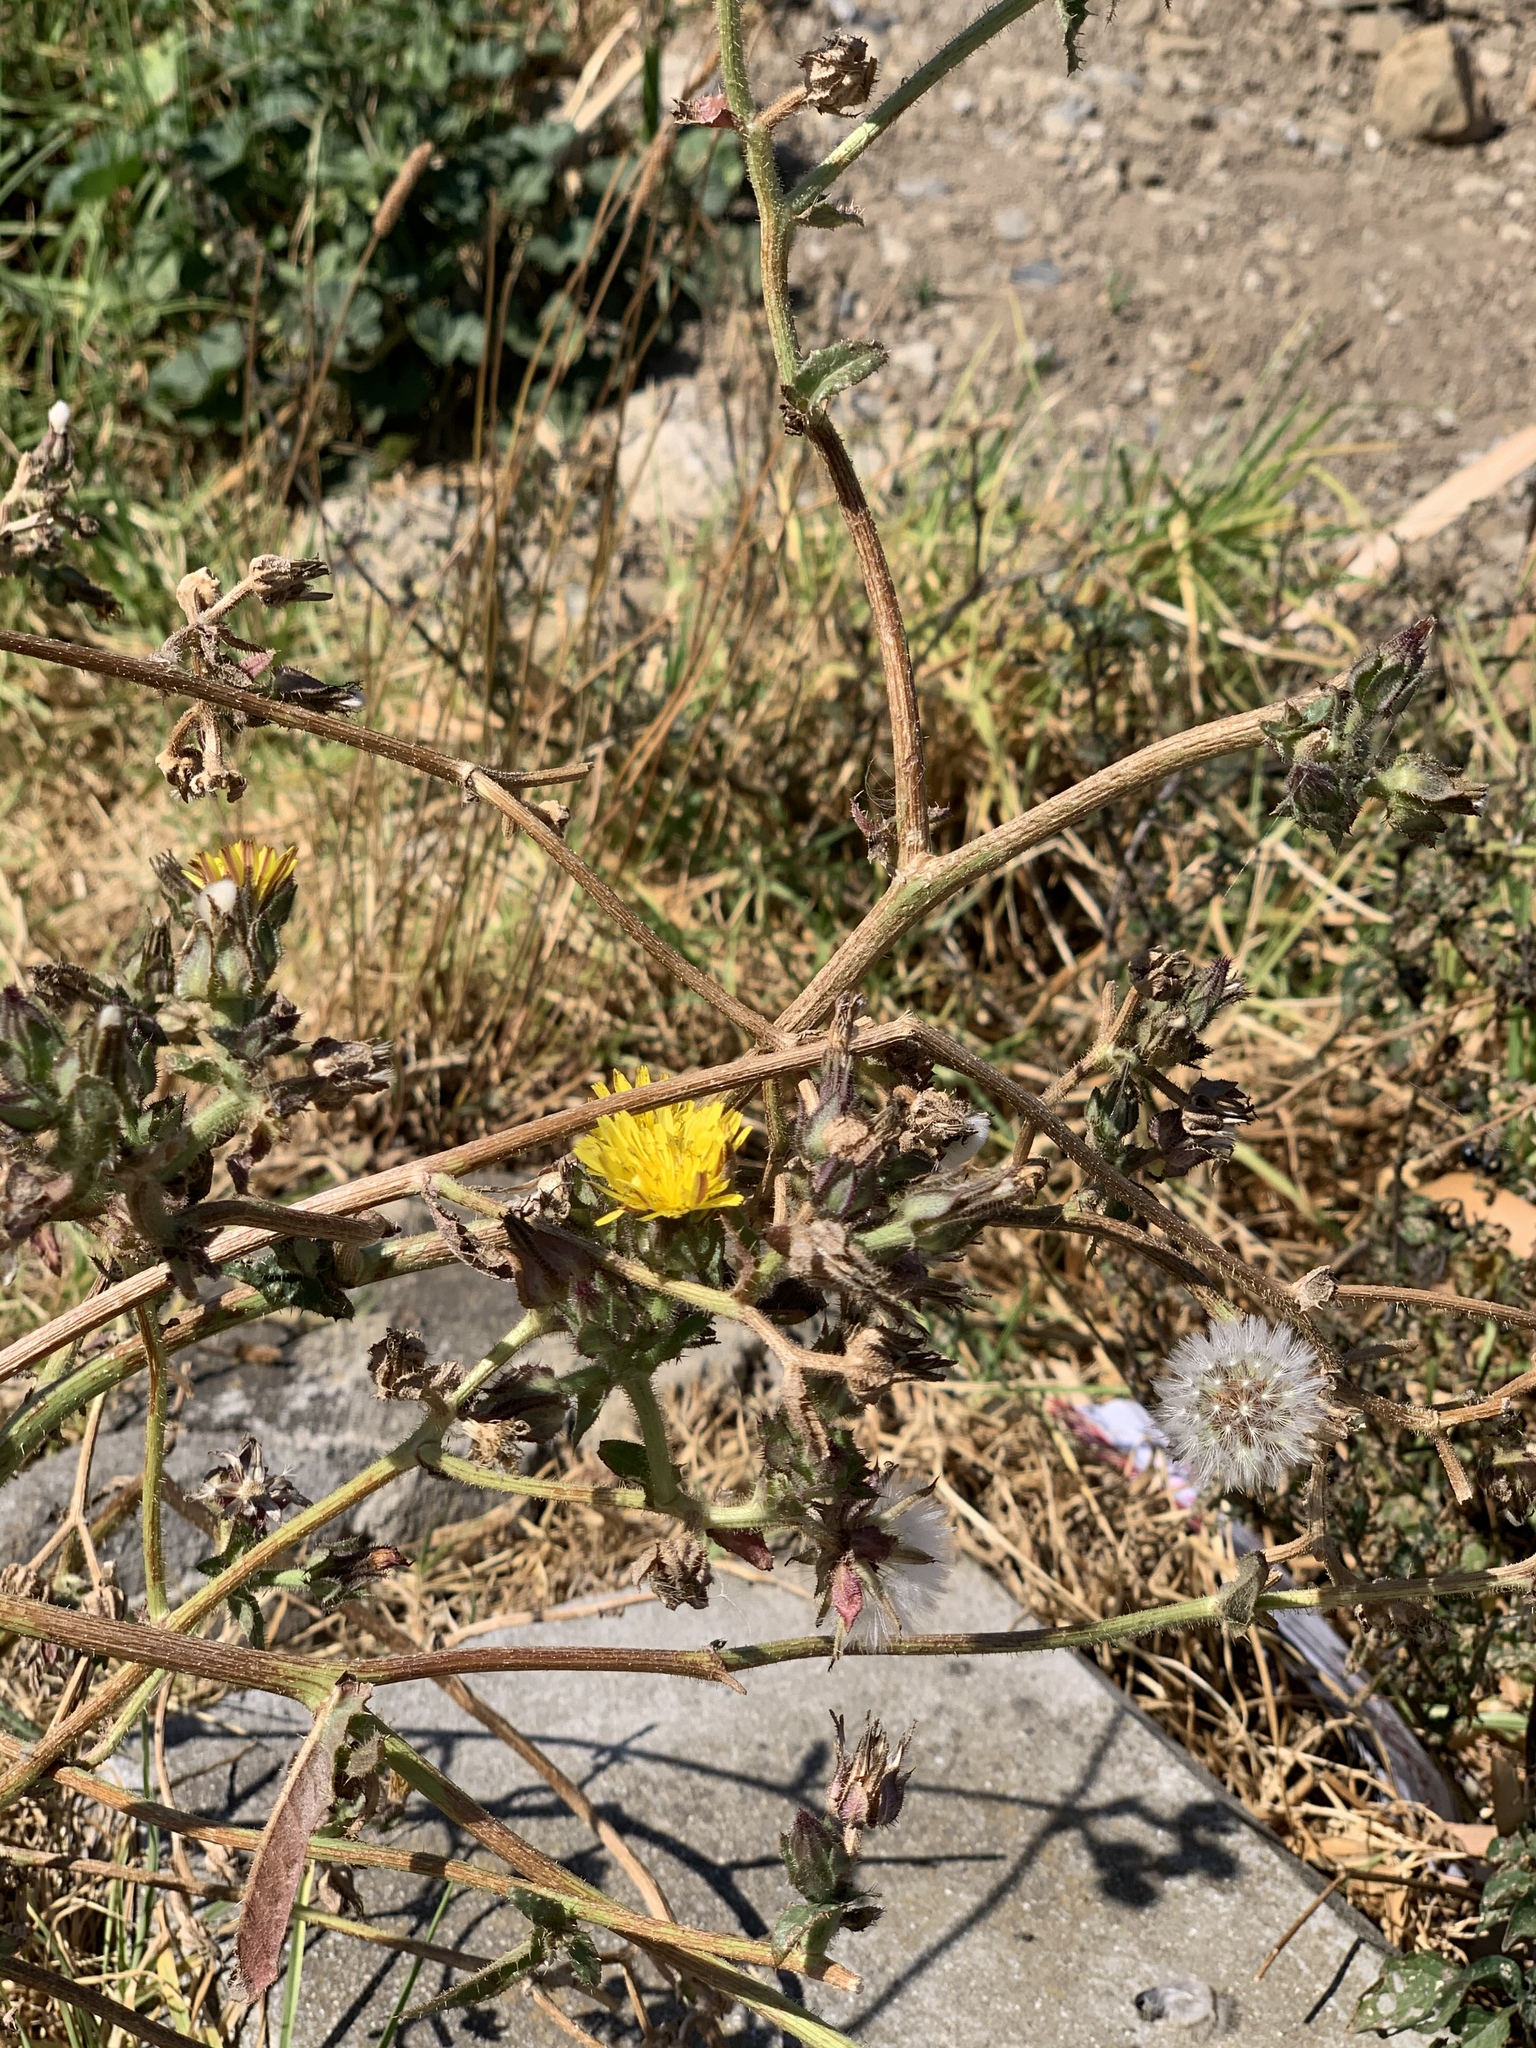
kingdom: Plantae
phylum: Tracheophyta
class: Magnoliopsida
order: Asterales
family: Asteraceae
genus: Helminthotheca
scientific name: Helminthotheca echioides
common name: Ox-tongue
